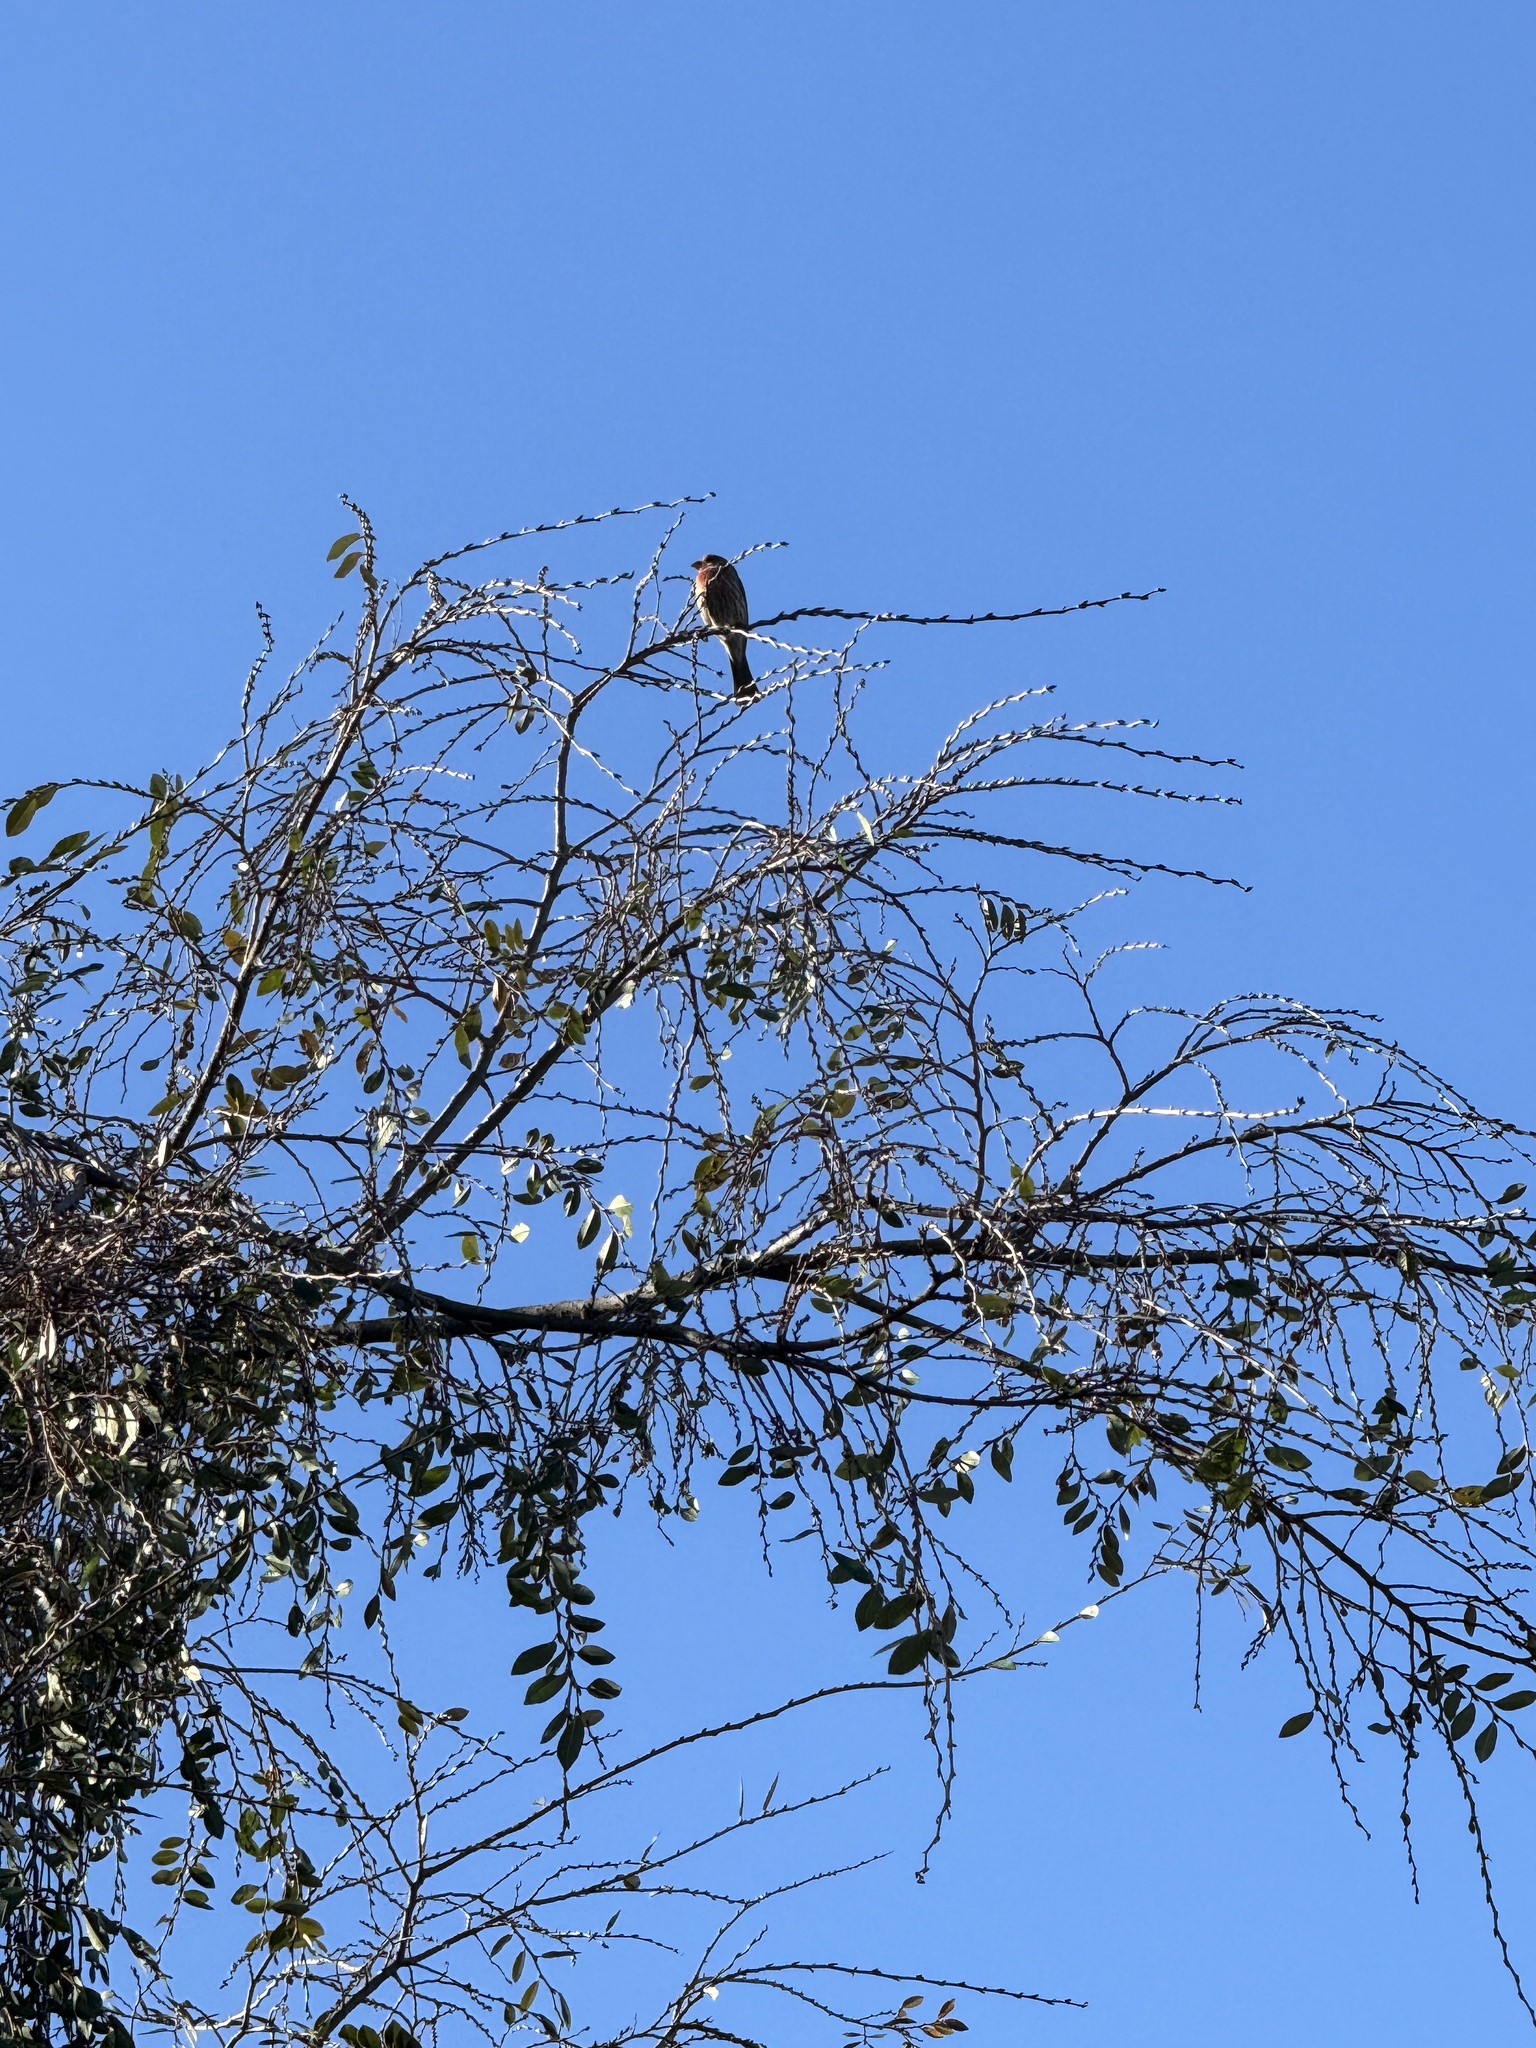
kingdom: Animalia
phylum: Chordata
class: Aves
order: Passeriformes
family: Fringillidae
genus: Haemorhous
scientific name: Haemorhous mexicanus
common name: House finch
